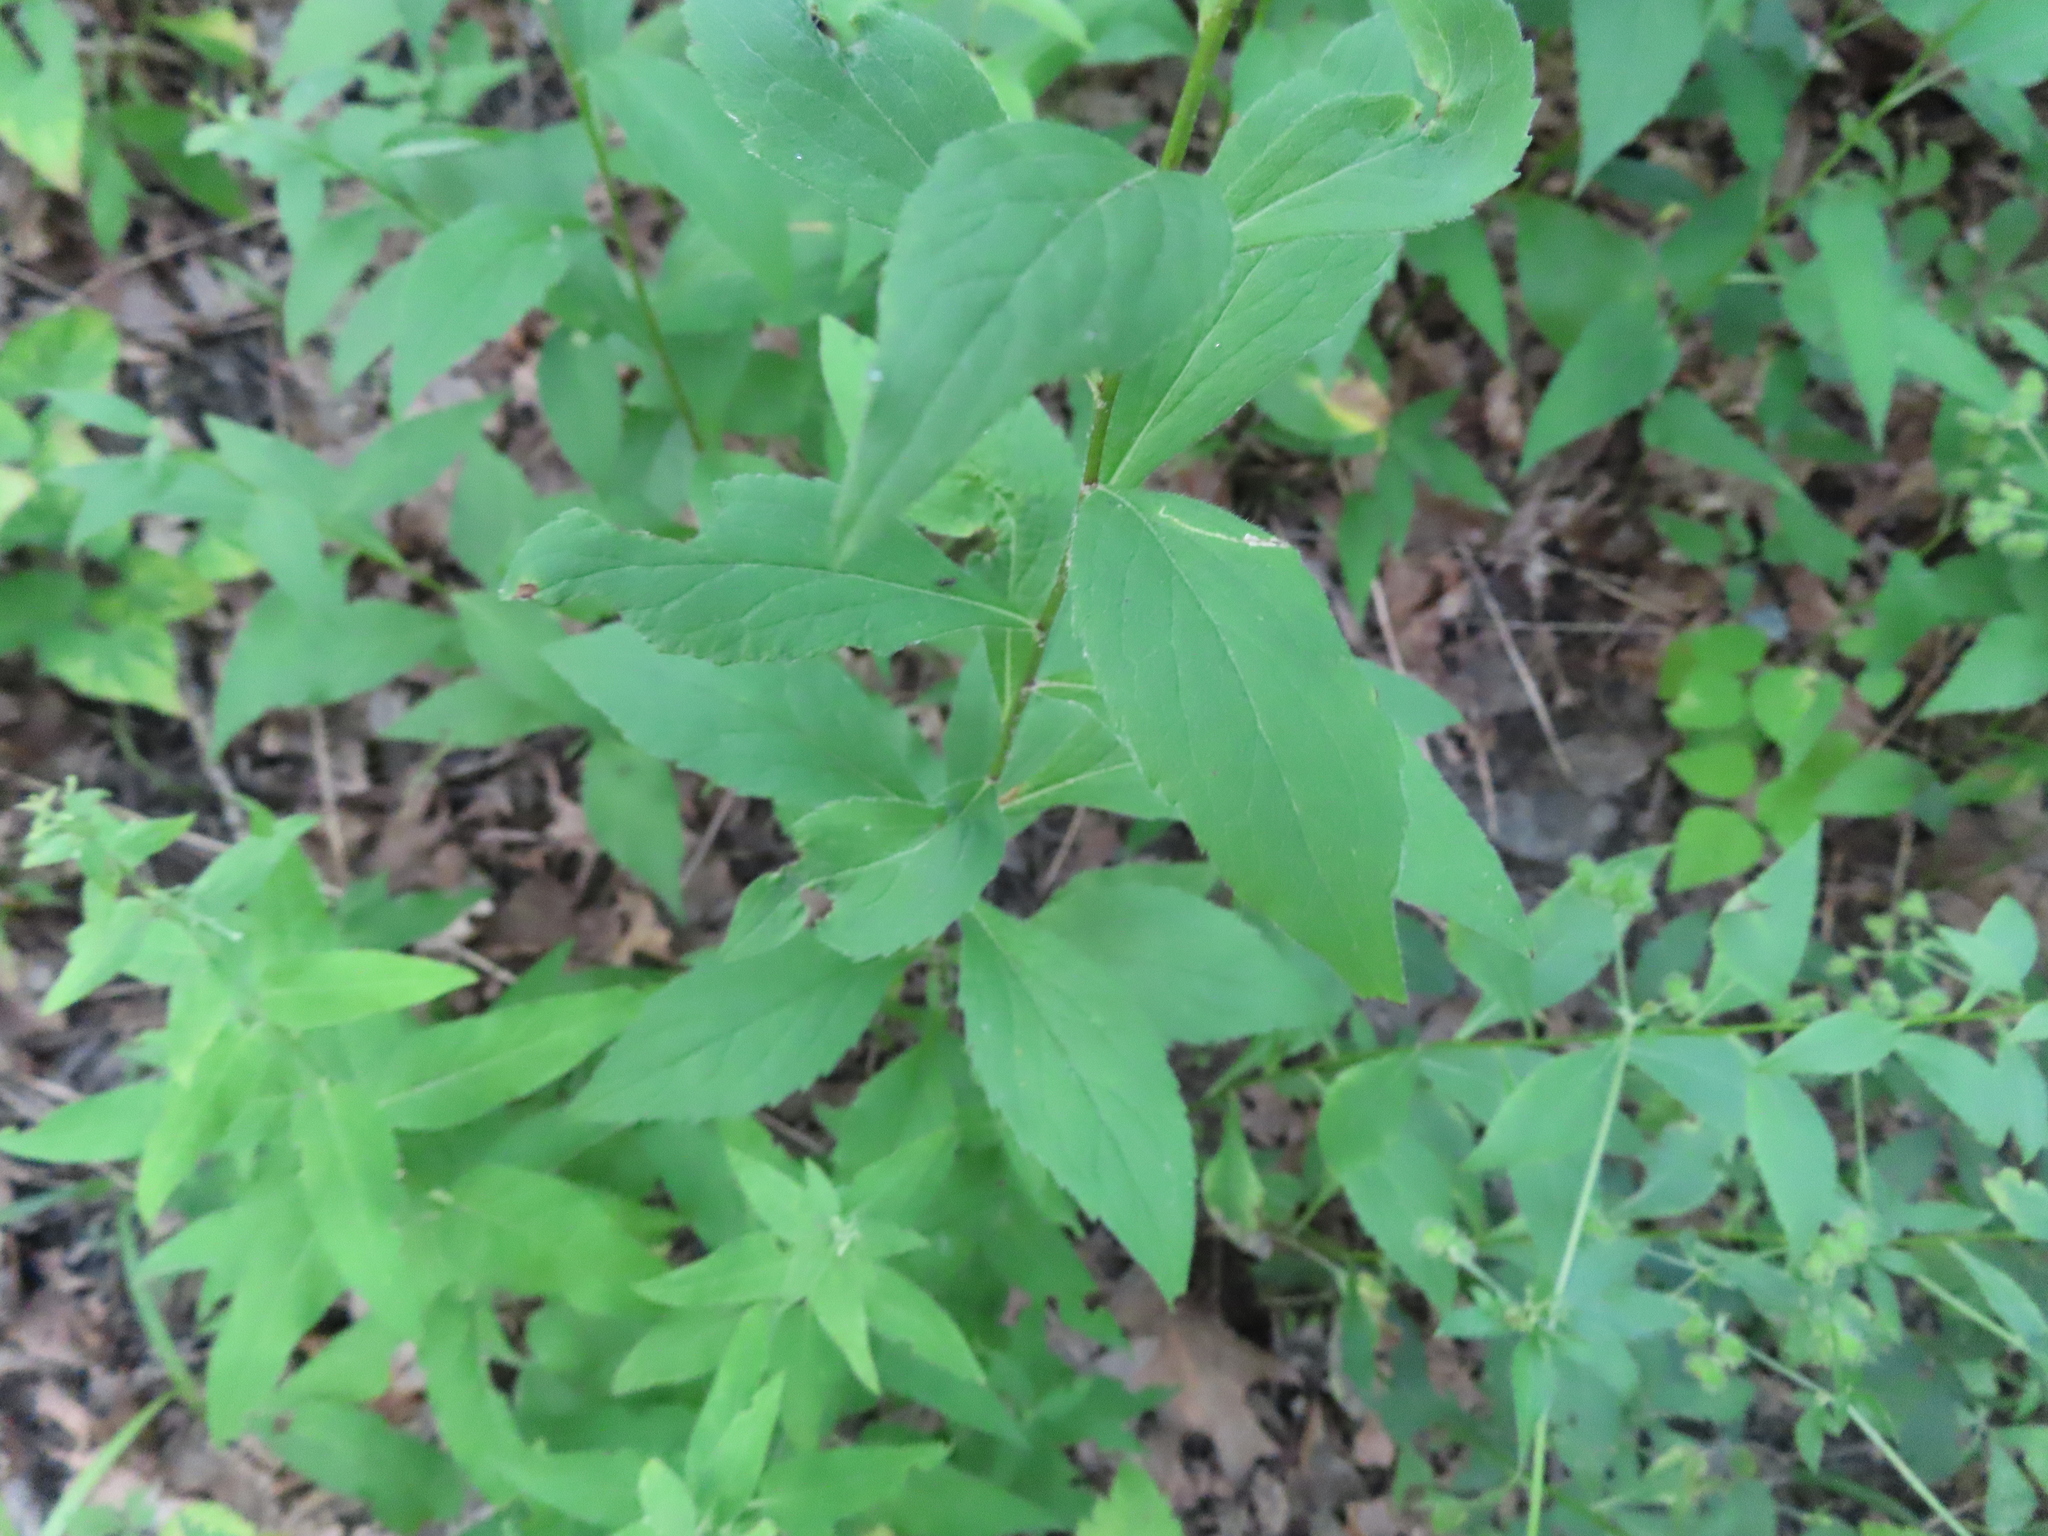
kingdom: Plantae
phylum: Tracheophyta
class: Magnoliopsida
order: Asterales
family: Asteraceae
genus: Solidago
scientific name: Solidago ulmifolia
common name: Elm-leaf goldenrod
